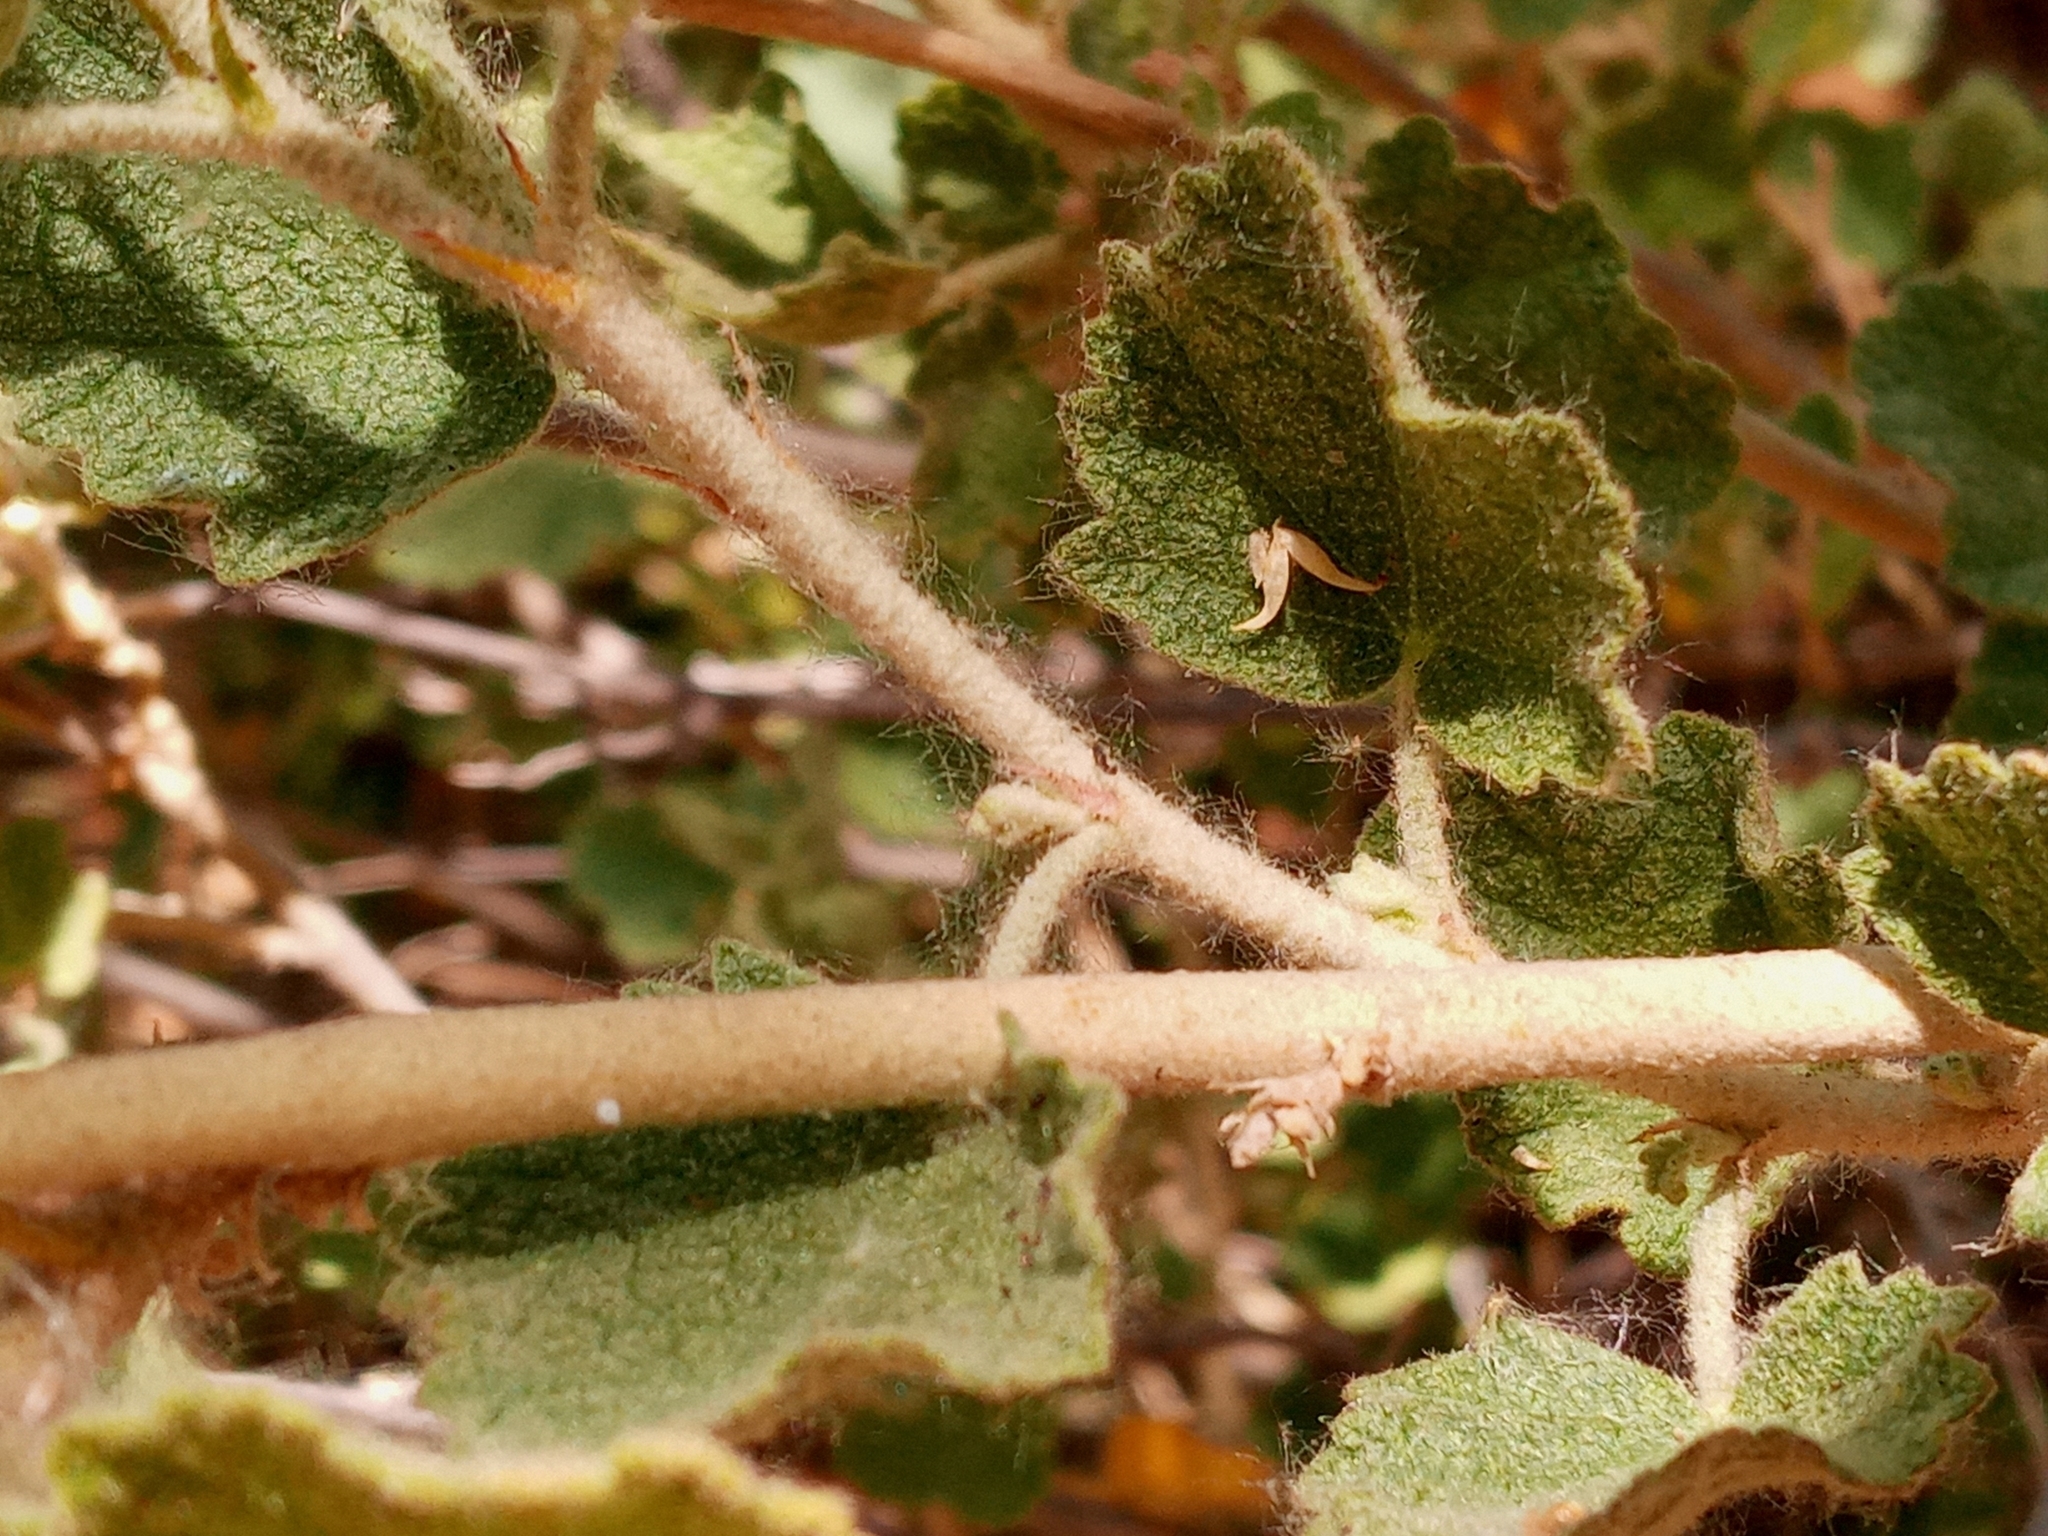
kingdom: Plantae
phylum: Tracheophyta
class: Magnoliopsida
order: Malvales
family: Malvaceae
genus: Malacothamnus
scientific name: Malacothamnus marrubioides
